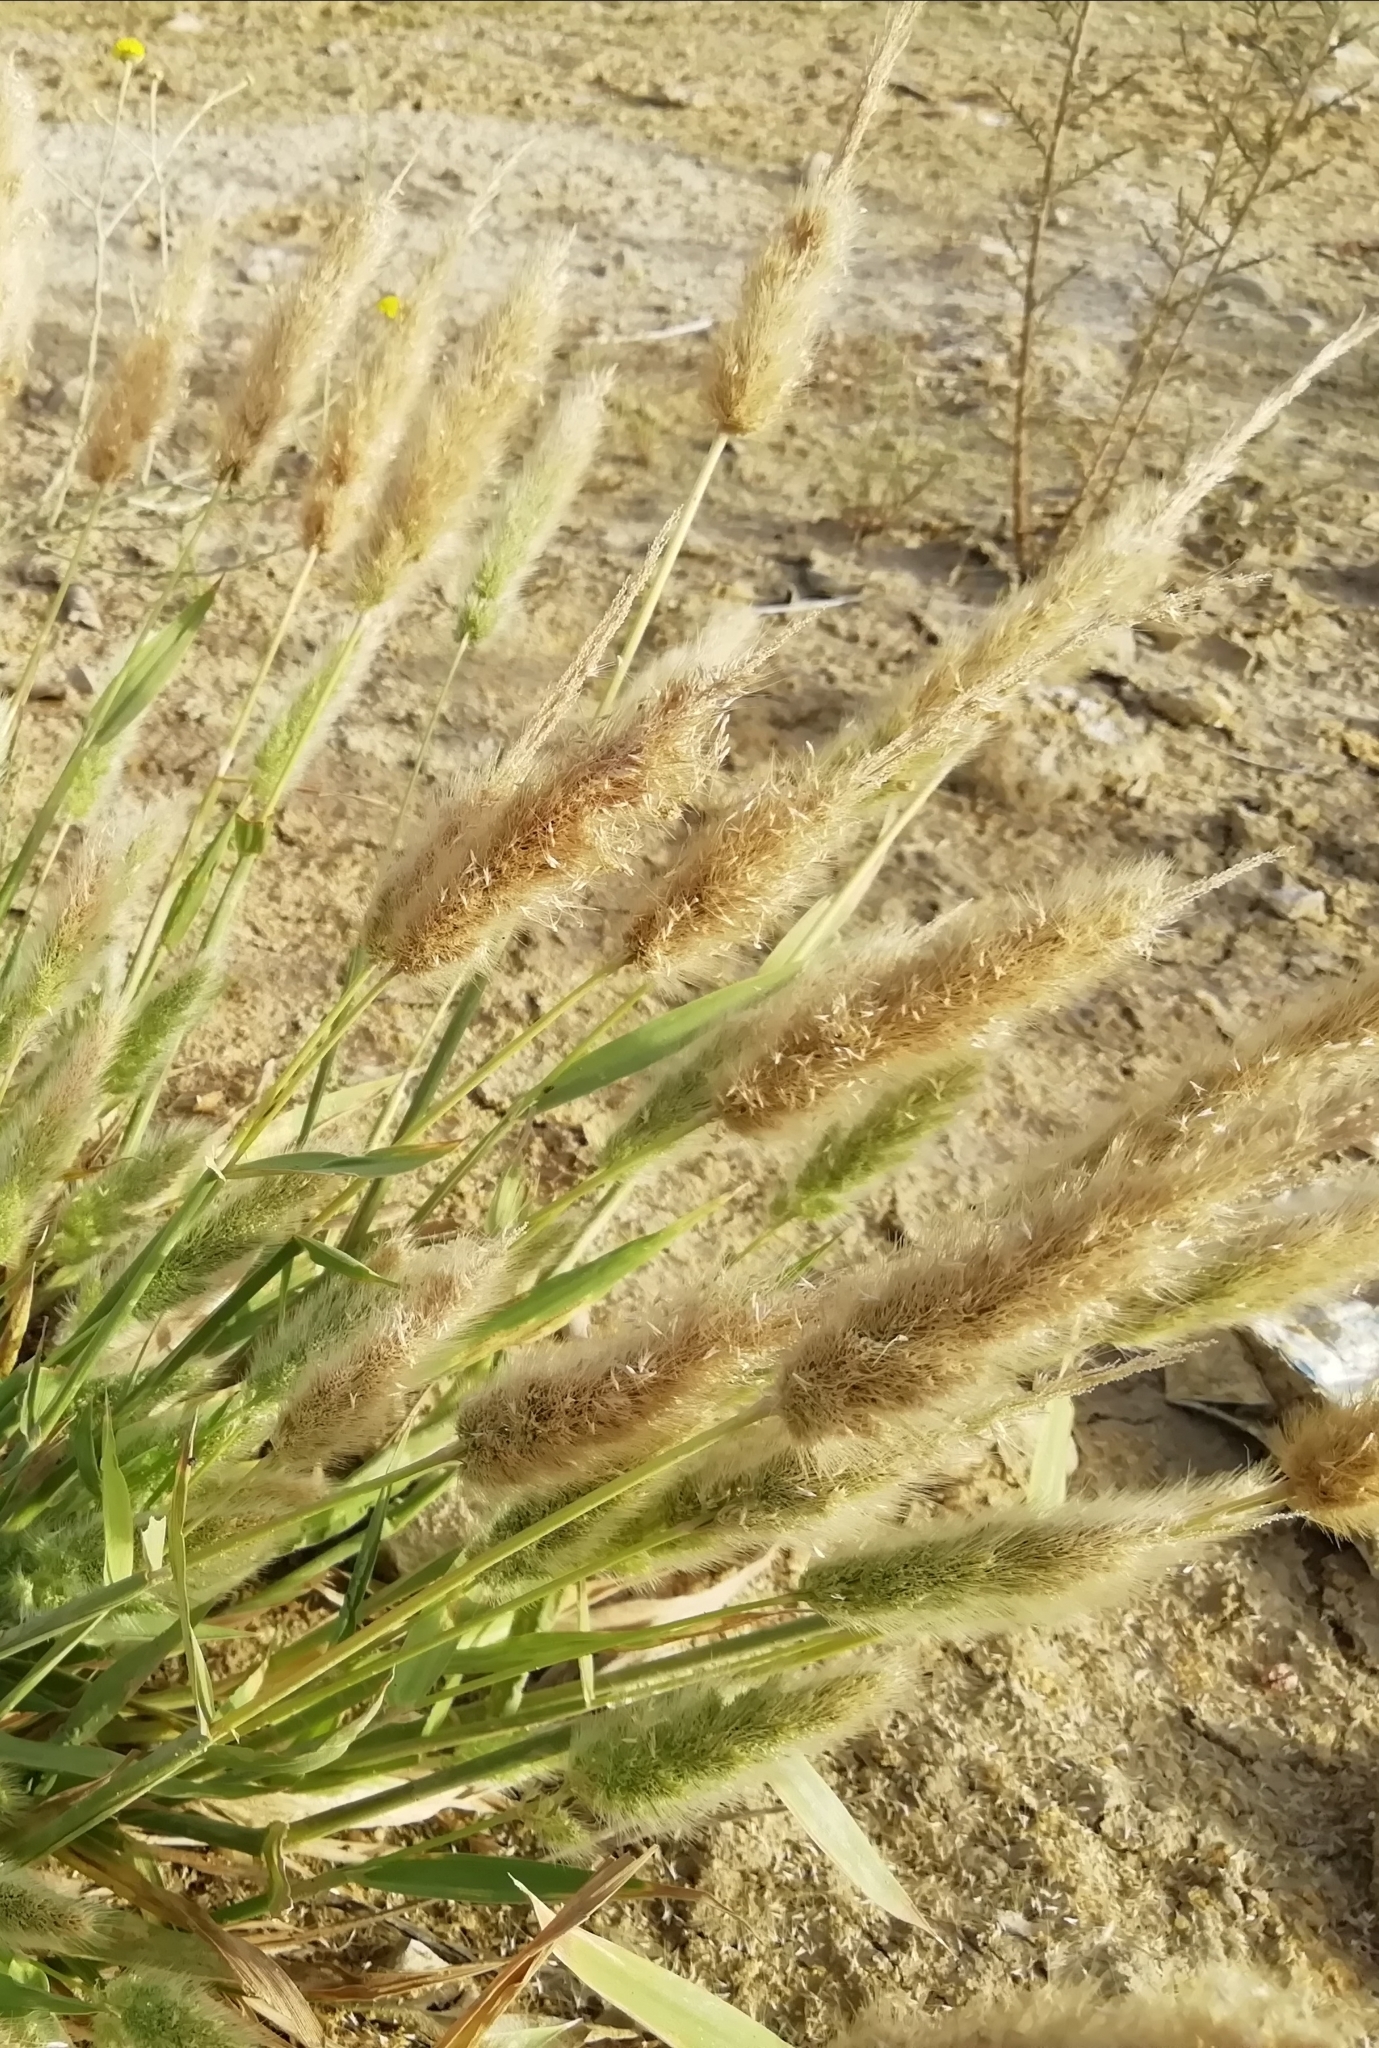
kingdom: Plantae
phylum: Tracheophyta
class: Liliopsida
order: Poales
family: Poaceae
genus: Polypogon
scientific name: Polypogon monspeliensis
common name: Annual rabbitsfoot grass
